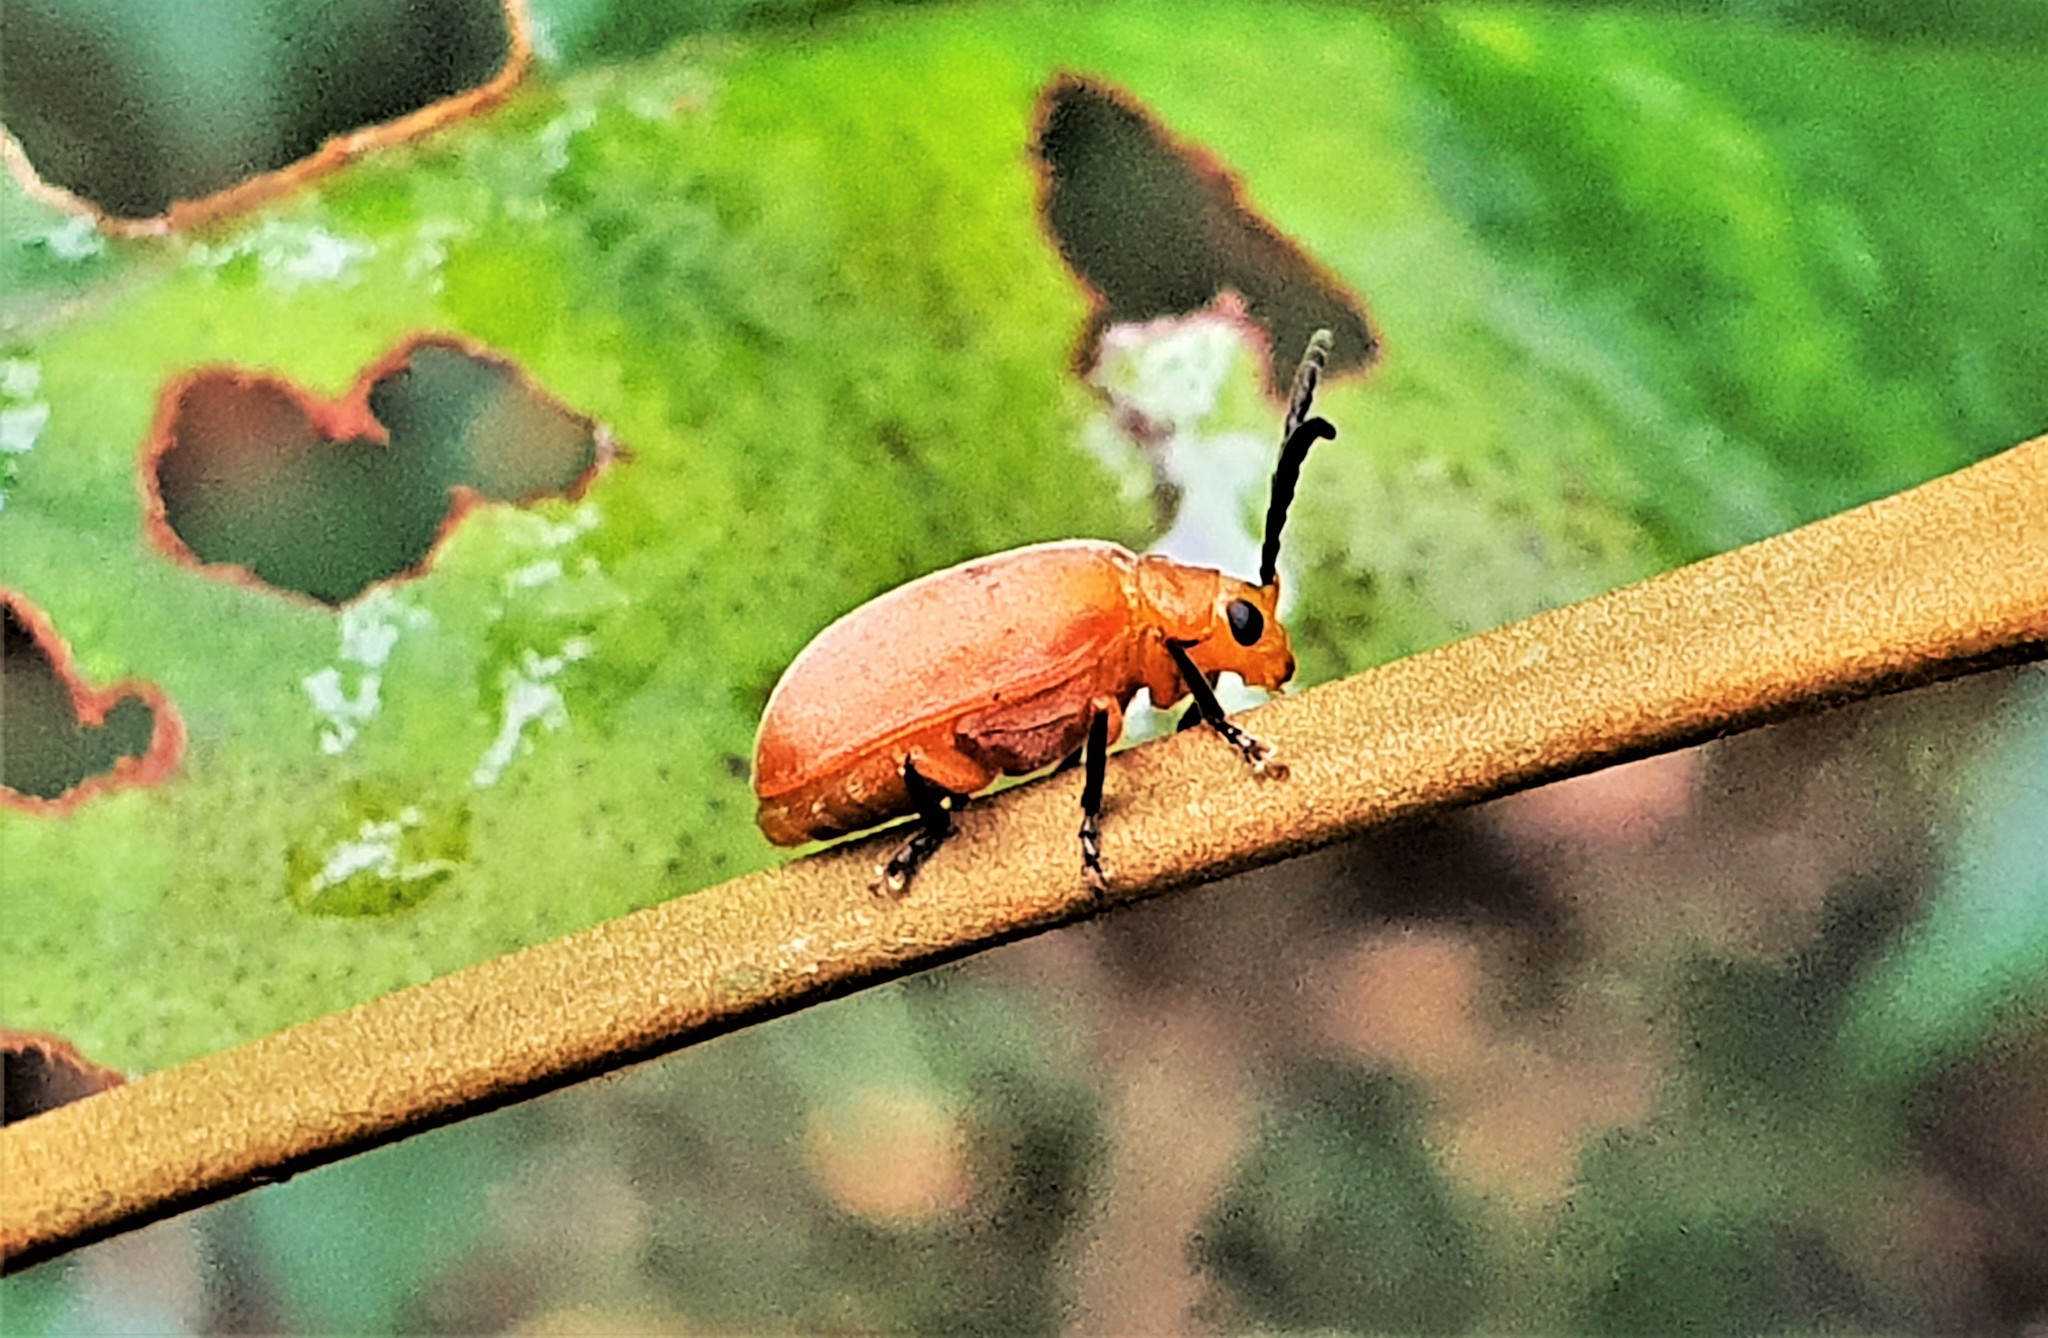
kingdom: Animalia
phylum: Arthropoda
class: Insecta
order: Coleoptera
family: Meloidae
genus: Cissites
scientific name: Cissites maculata
